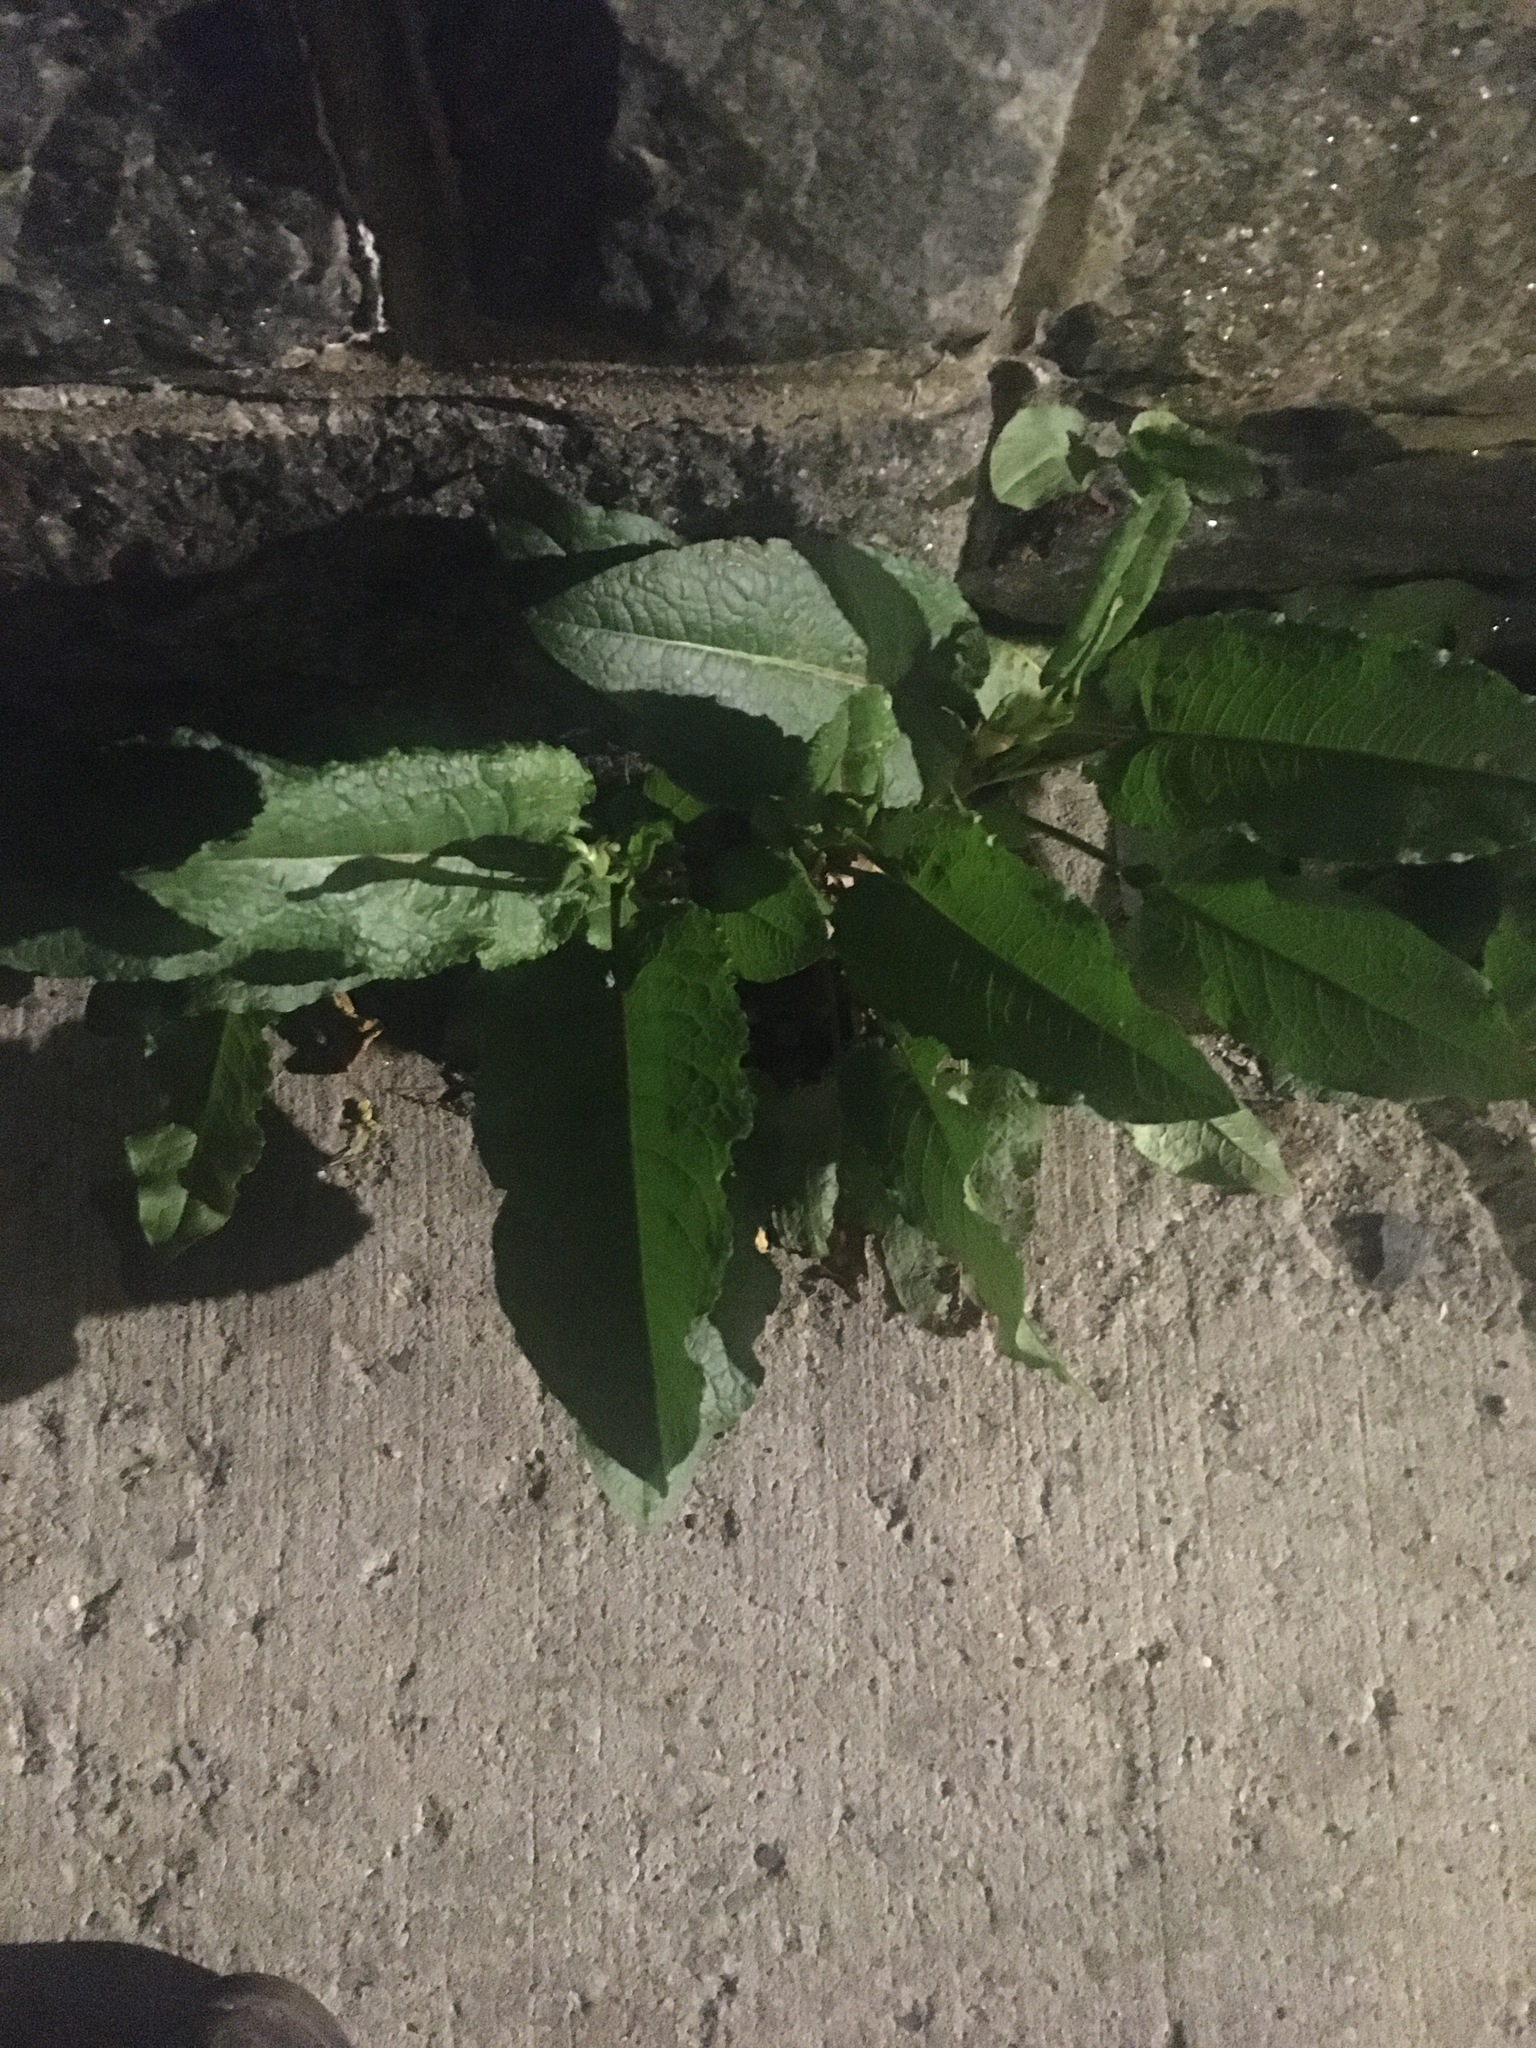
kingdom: Plantae
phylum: Tracheophyta
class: Magnoliopsida
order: Caryophyllales
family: Polygonaceae
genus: Rumex
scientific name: Rumex obtusifolius
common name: Bitter dock
